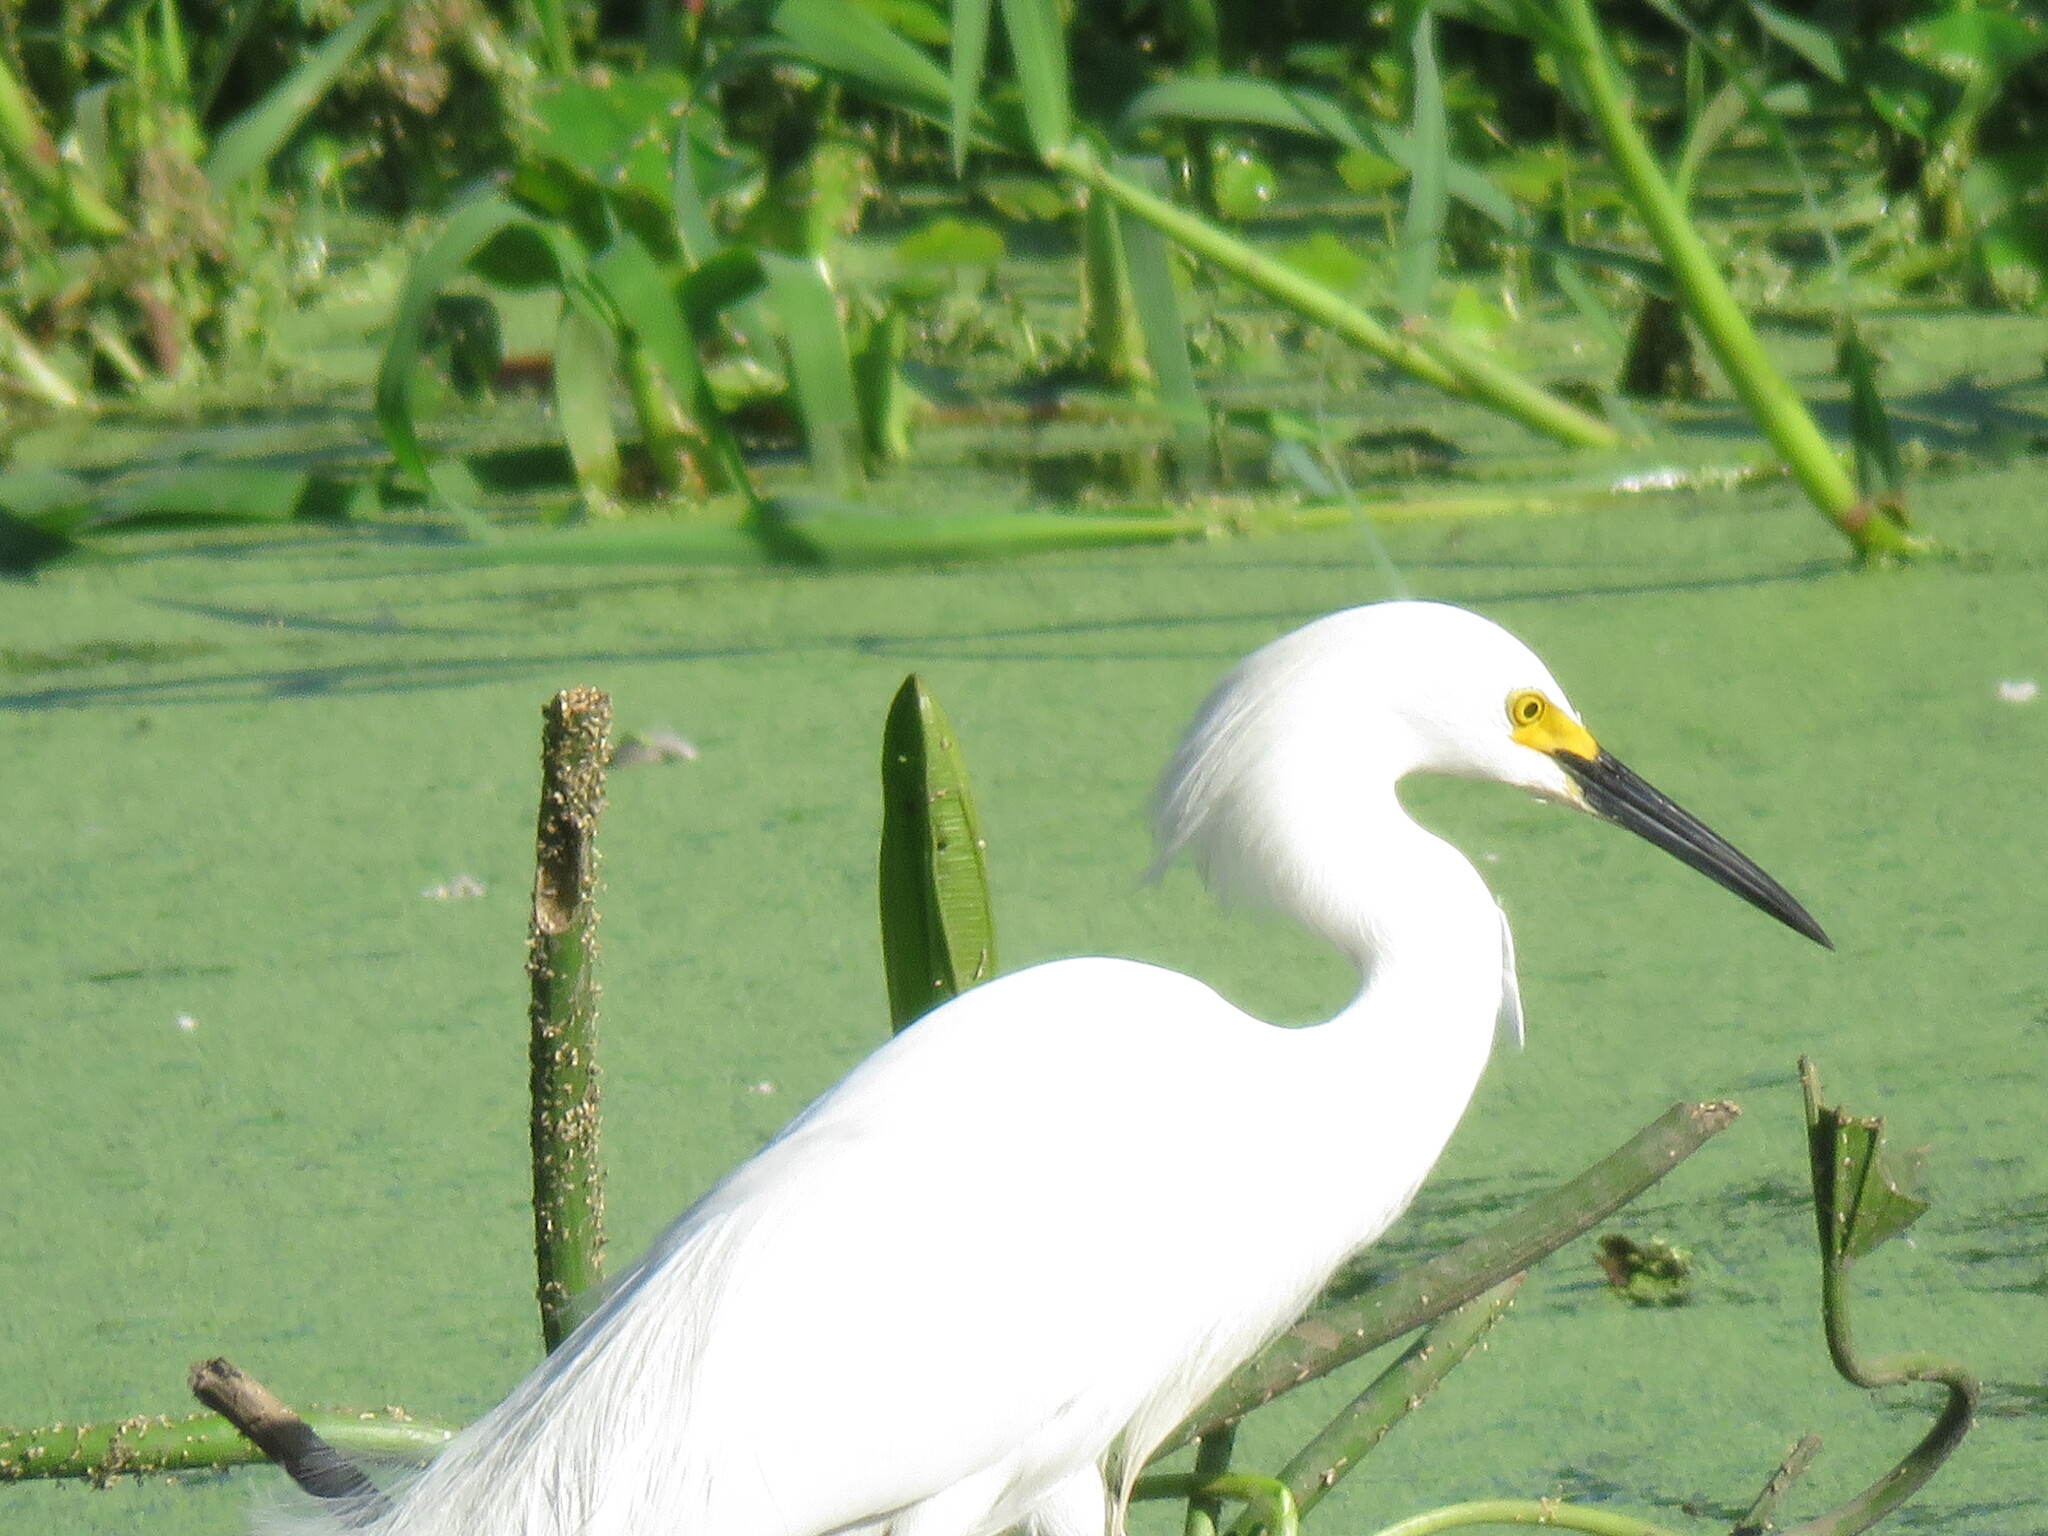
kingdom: Animalia
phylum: Chordata
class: Aves
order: Pelecaniformes
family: Ardeidae
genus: Egretta
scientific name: Egretta thula
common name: Snowy egret
